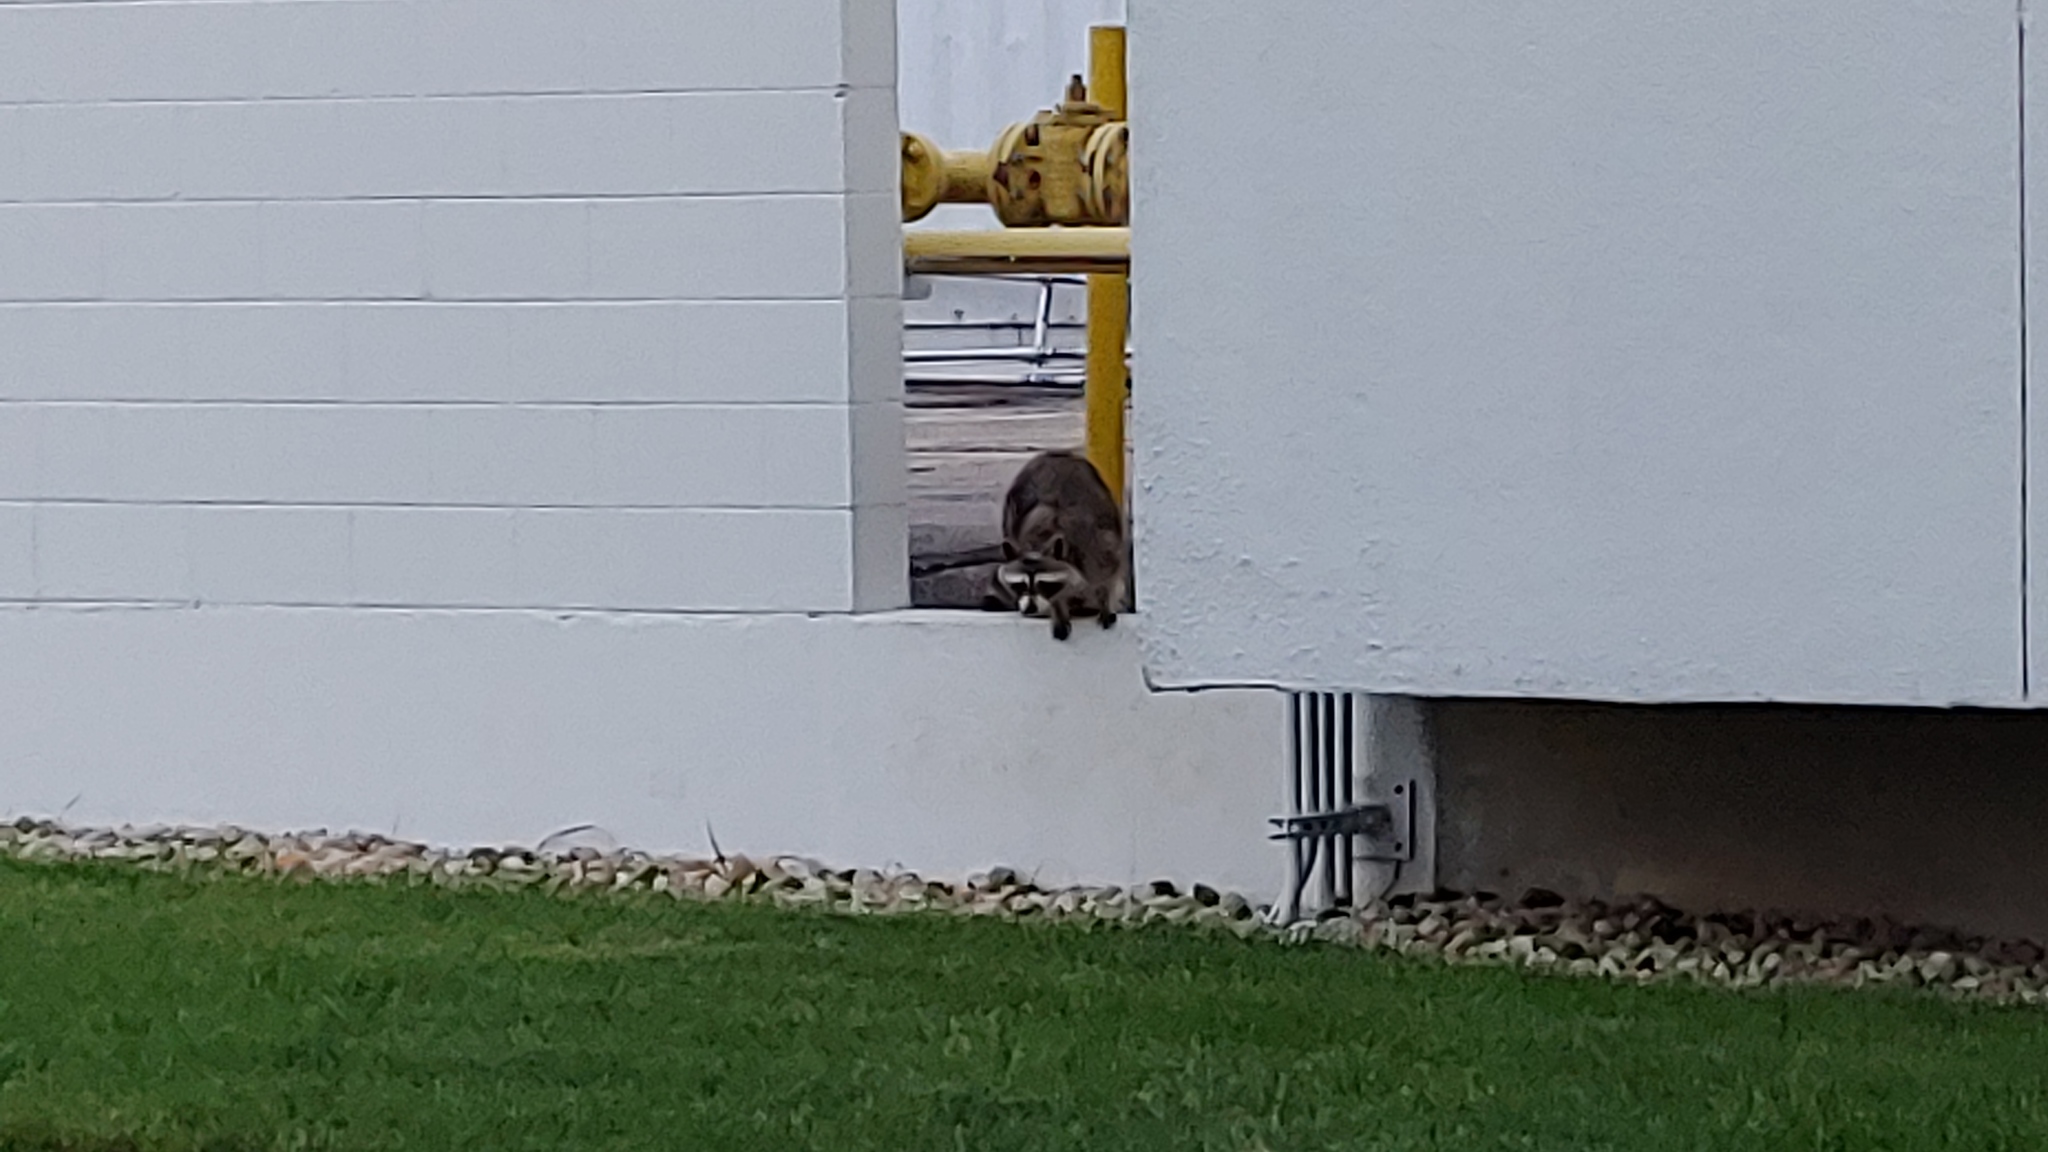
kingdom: Animalia
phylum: Chordata
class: Mammalia
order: Carnivora
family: Procyonidae
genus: Procyon
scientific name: Procyon lotor
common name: Raccoon
